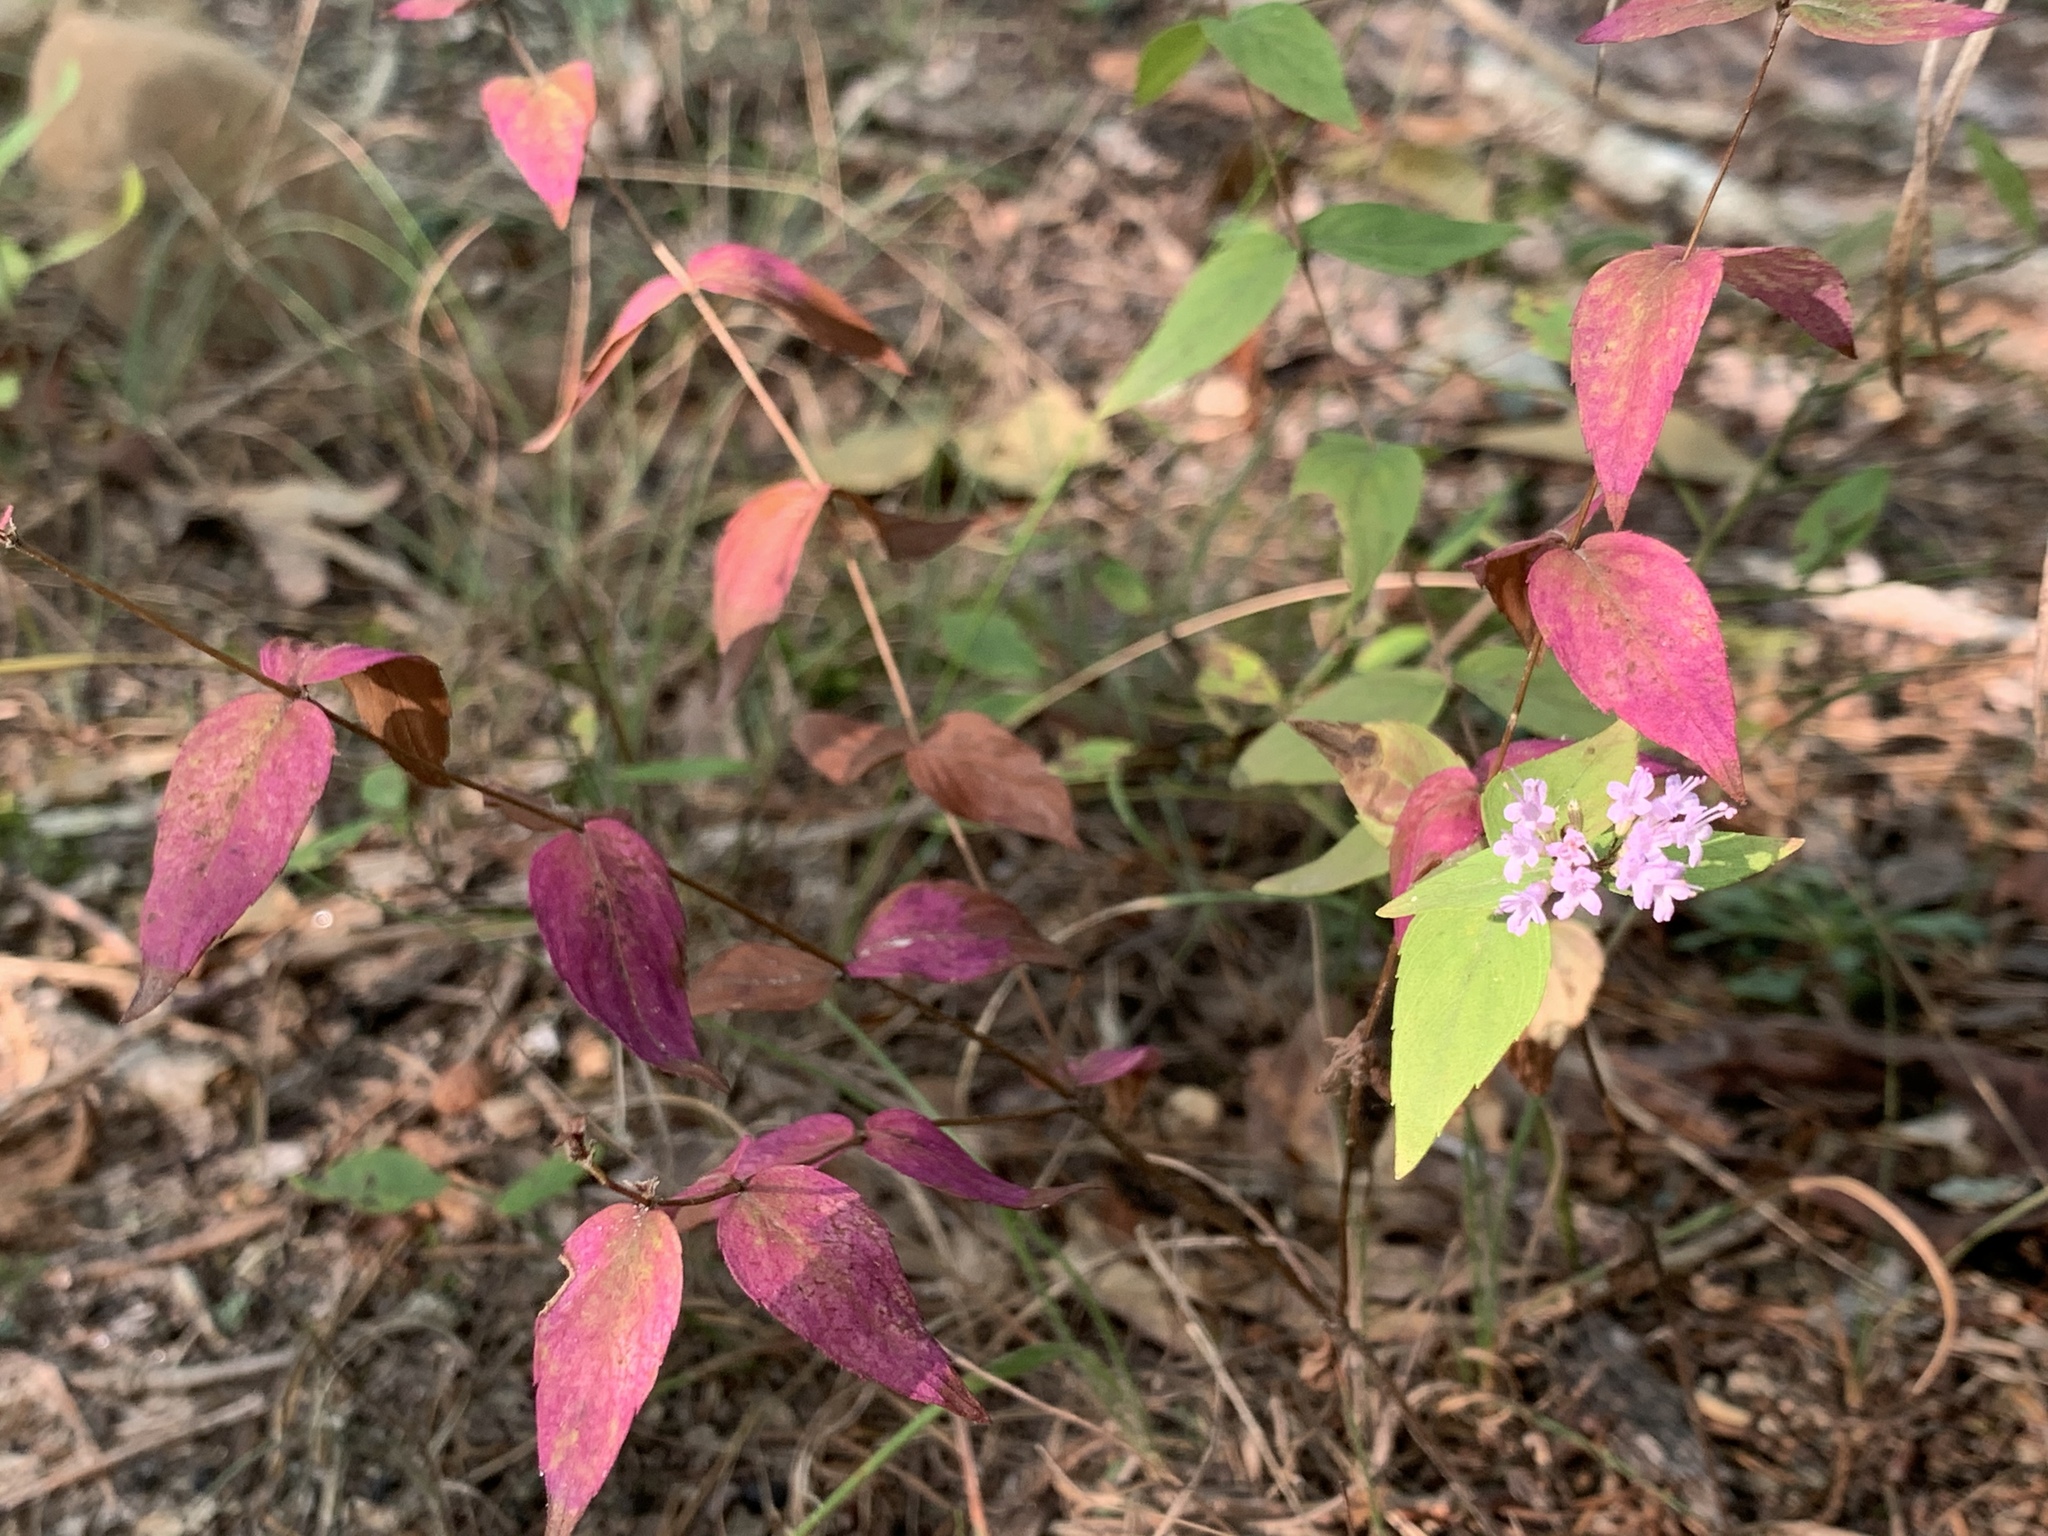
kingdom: Plantae
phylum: Tracheophyta
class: Magnoliopsida
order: Lamiales
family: Lamiaceae
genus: Cunila
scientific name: Cunila origanoides
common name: American dittany
